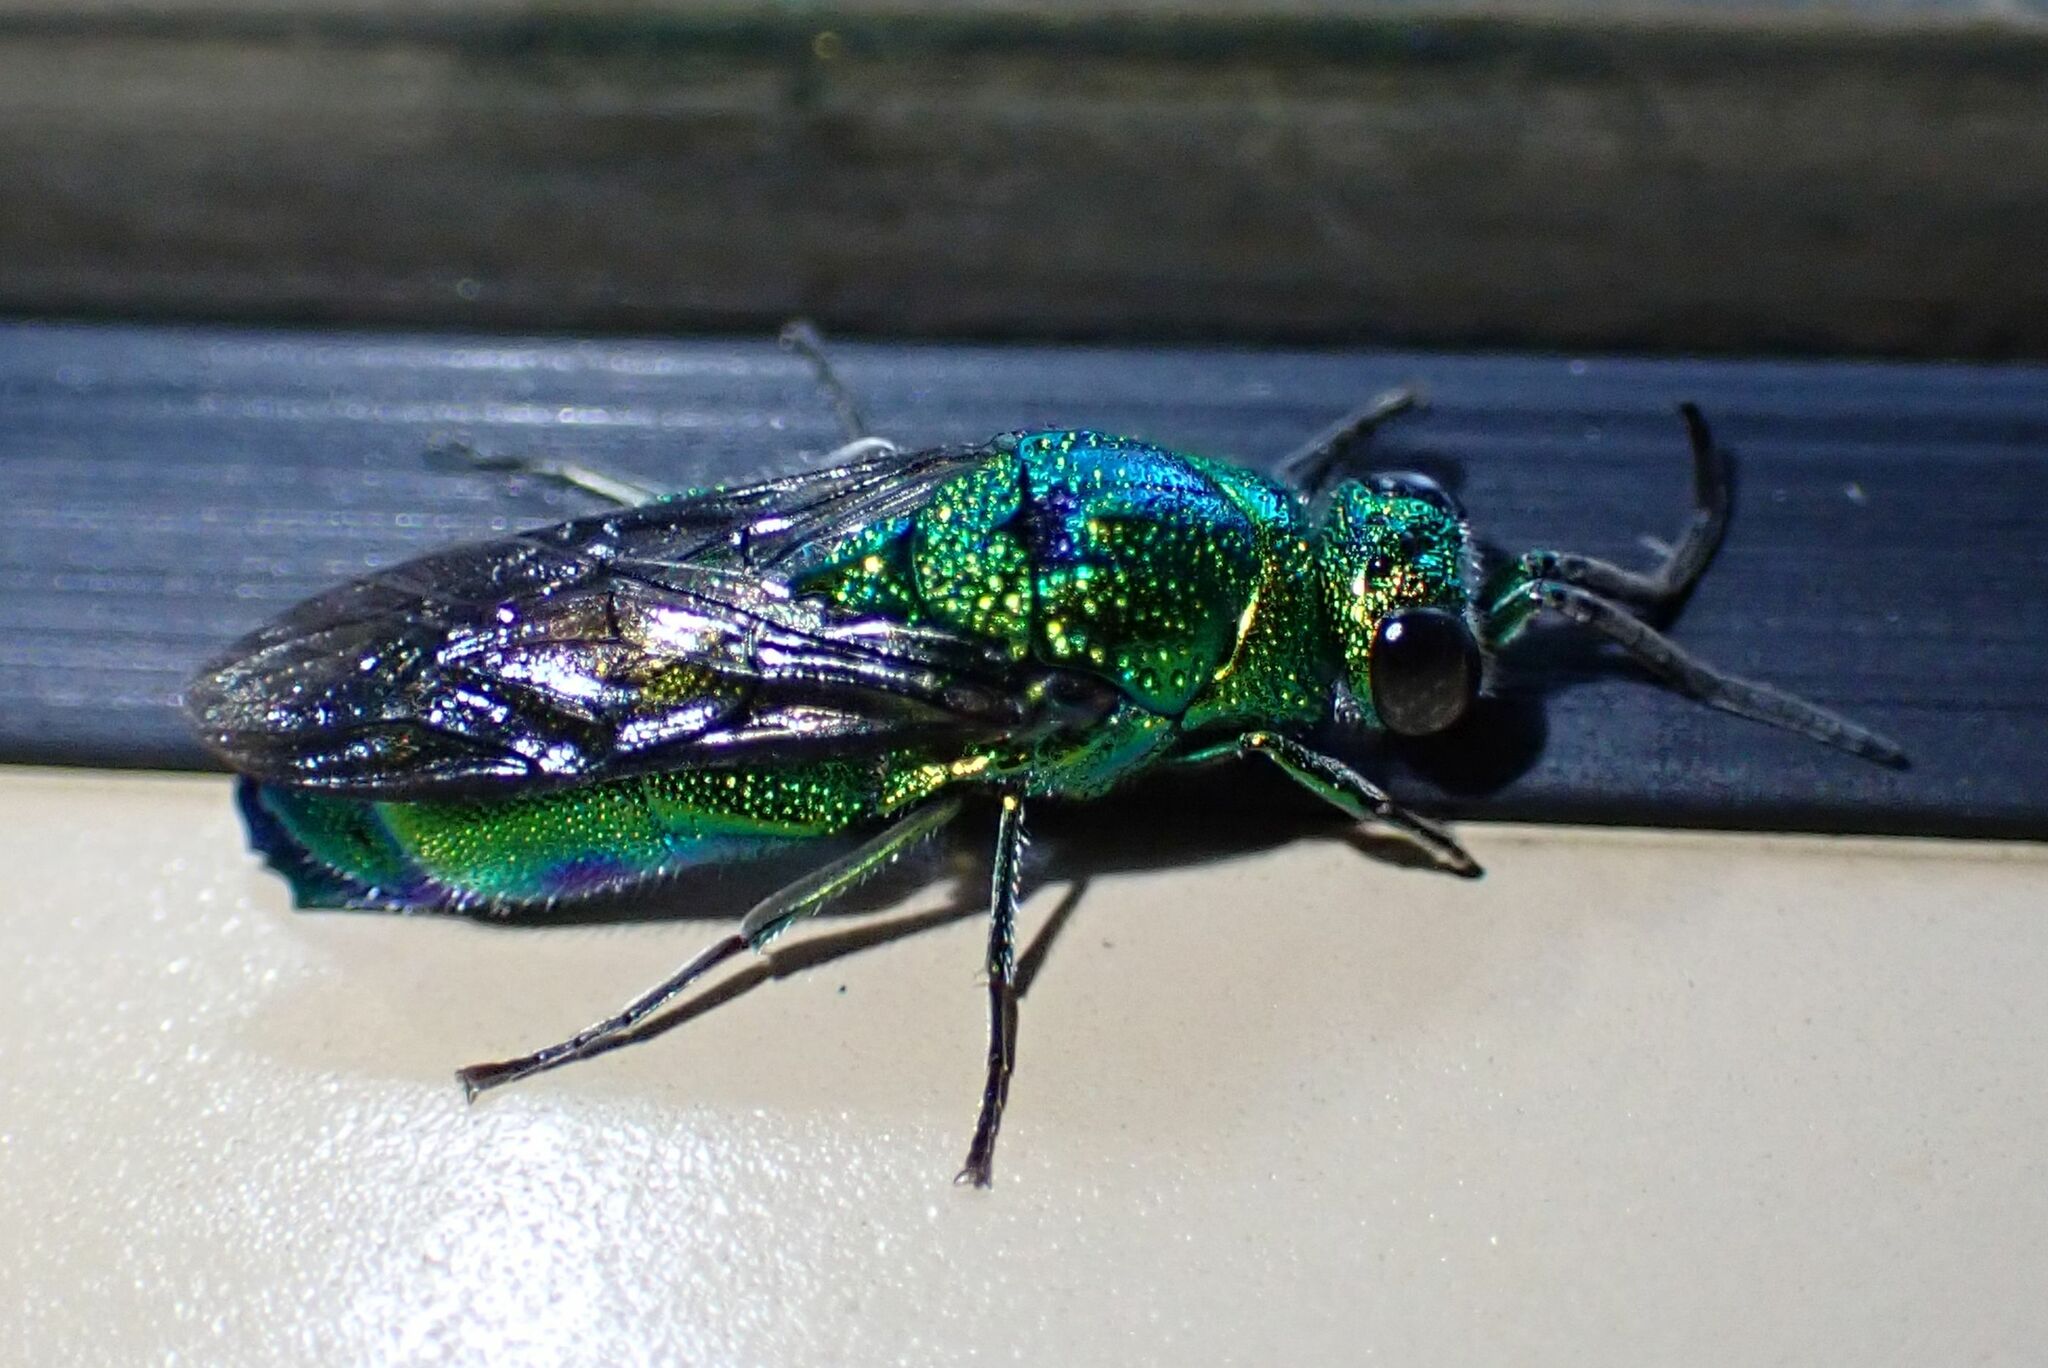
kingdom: Animalia
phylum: Arthropoda
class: Insecta
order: Hymenoptera
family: Chrysididae
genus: Chrysis
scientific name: Chrysis lincea
